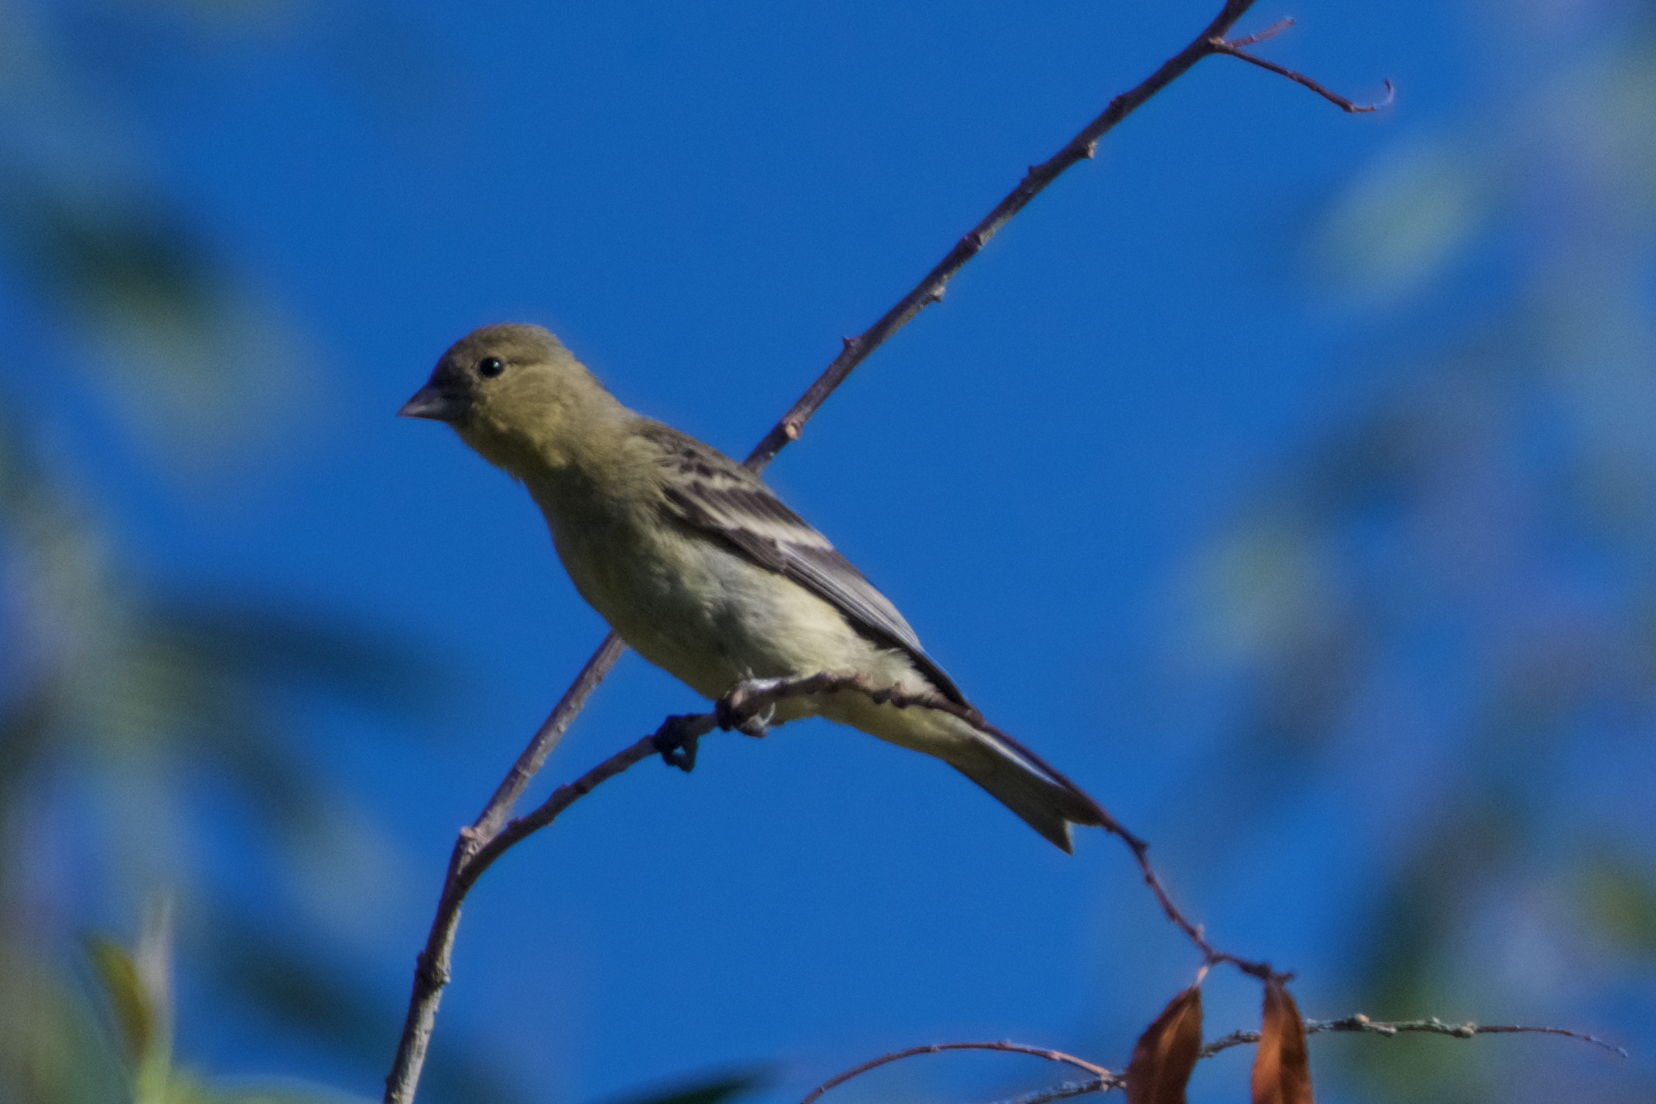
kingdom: Animalia
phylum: Chordata
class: Aves
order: Passeriformes
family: Fringillidae
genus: Spinus
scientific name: Spinus psaltria
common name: Lesser goldfinch
